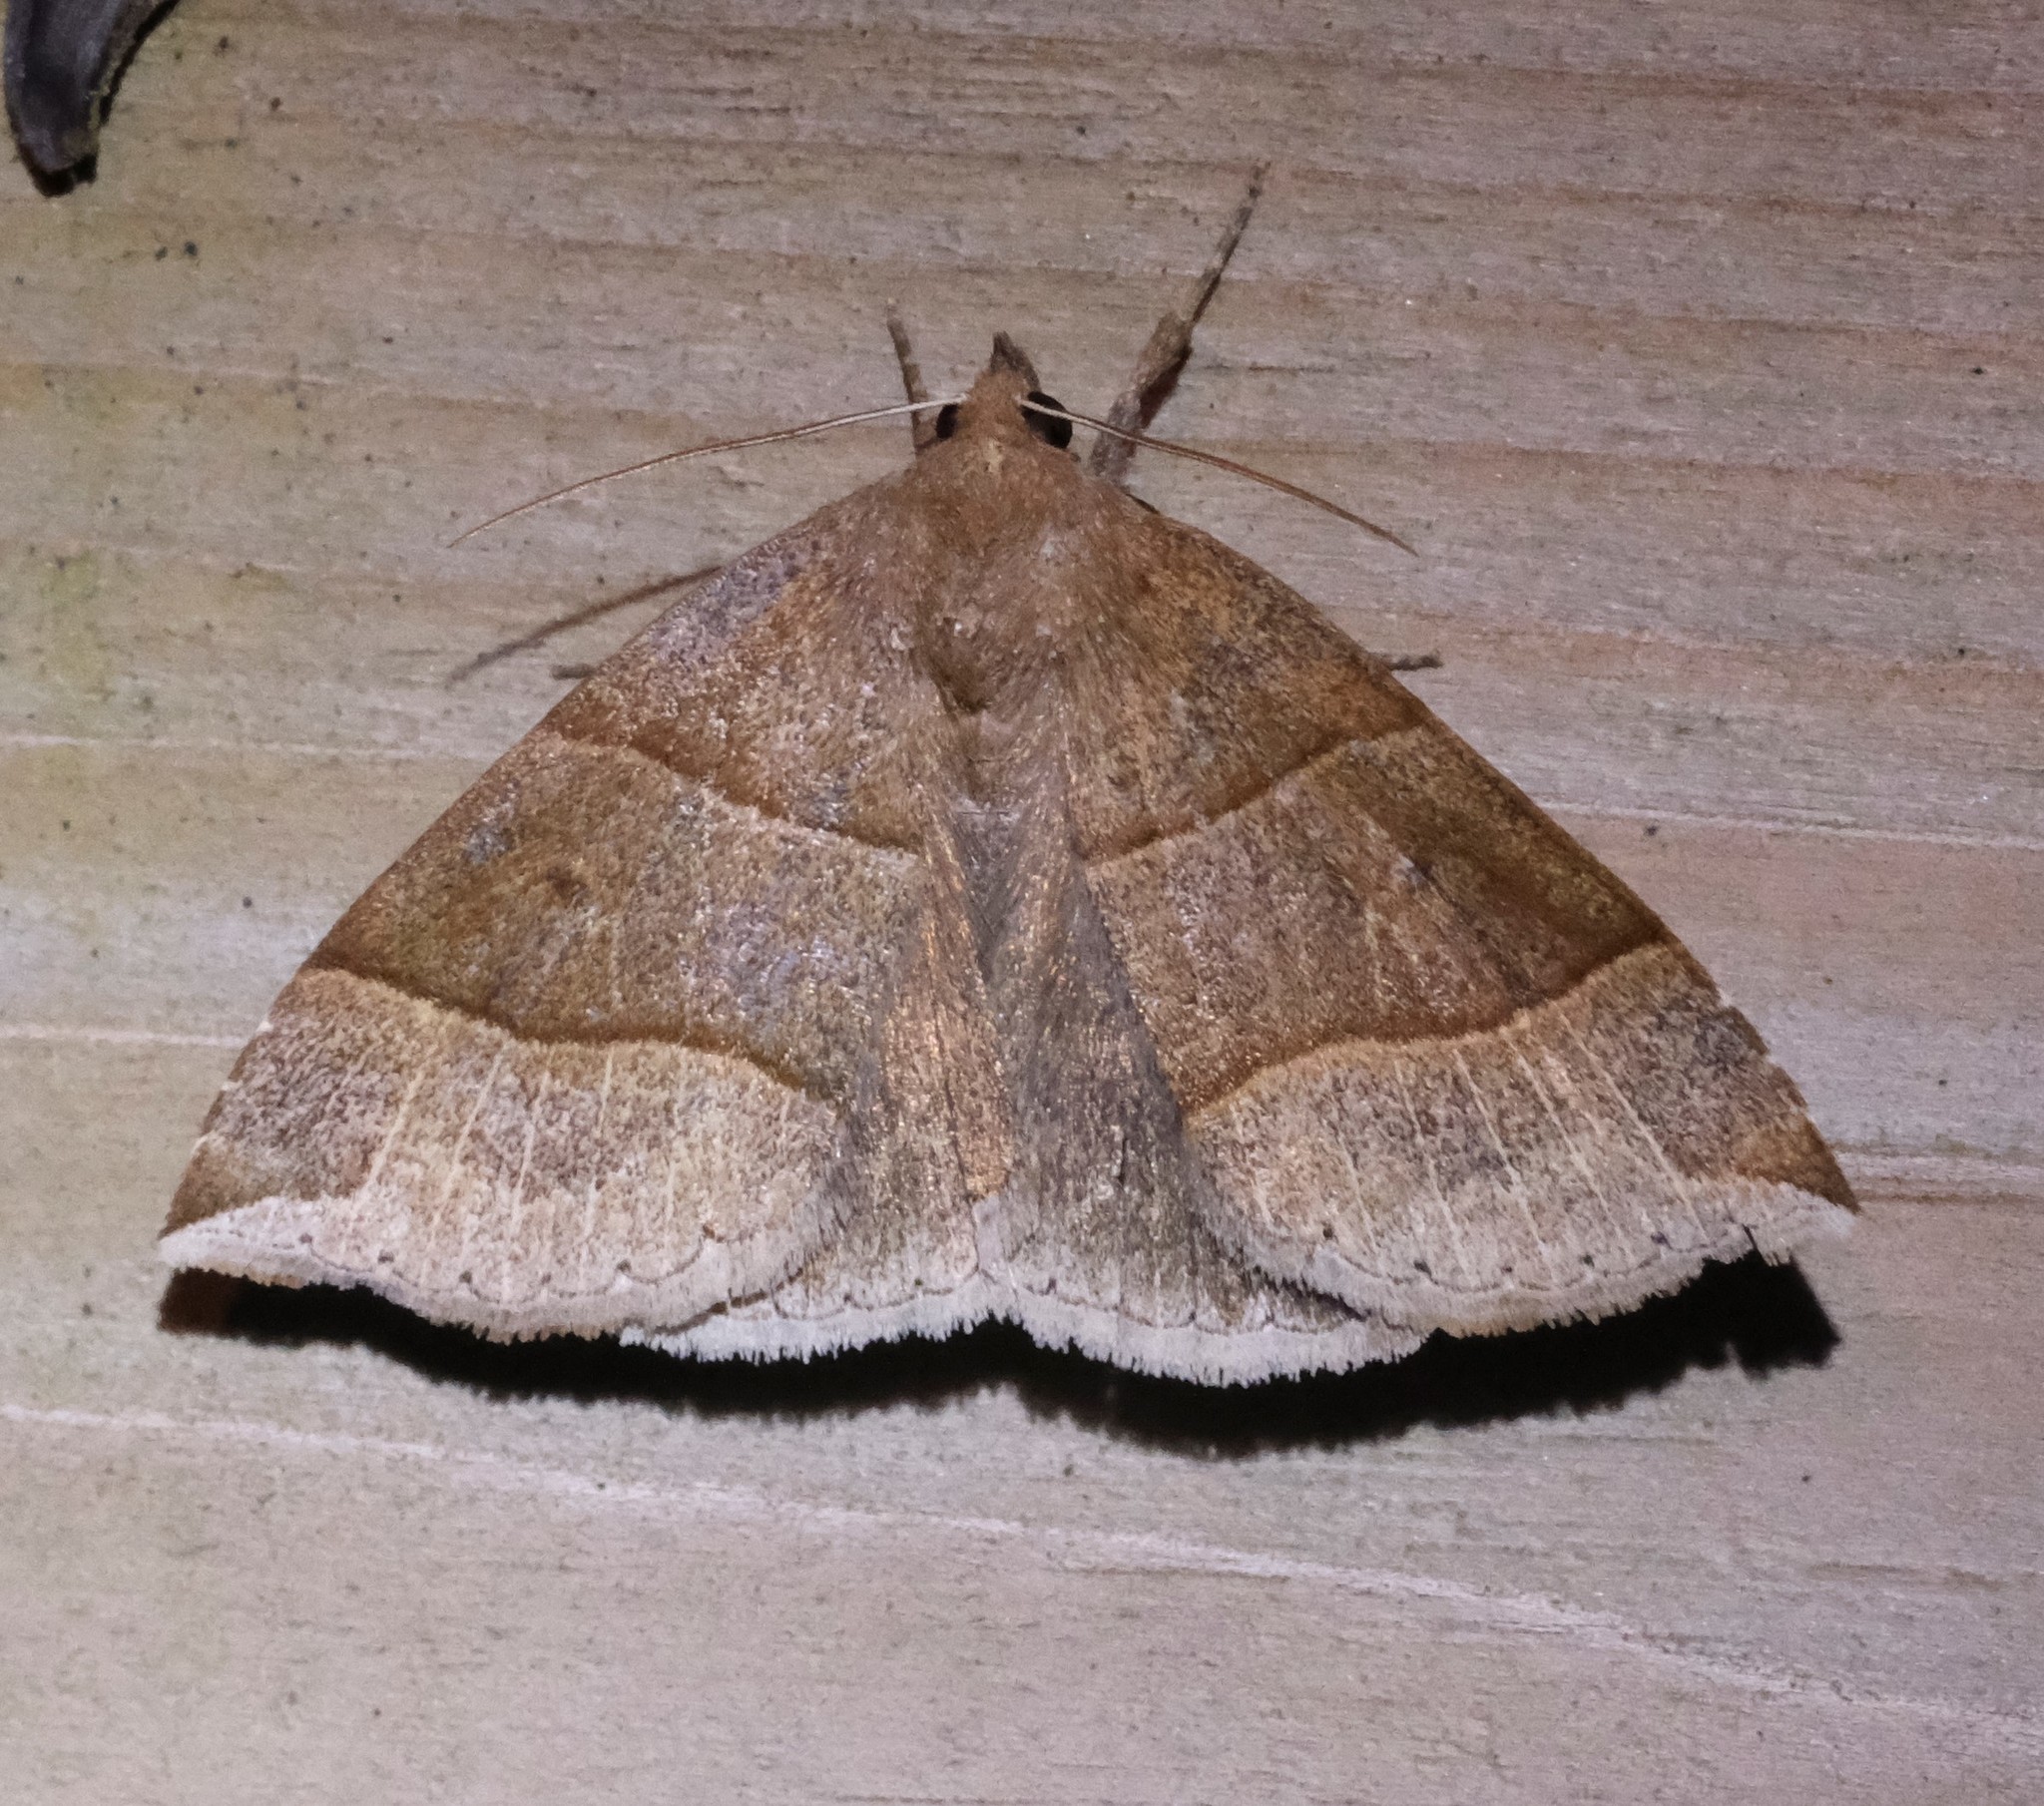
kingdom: Animalia
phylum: Arthropoda
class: Insecta
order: Lepidoptera
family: Erebidae
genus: Parallelia
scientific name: Parallelia bistriaris
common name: Maple looper moth
